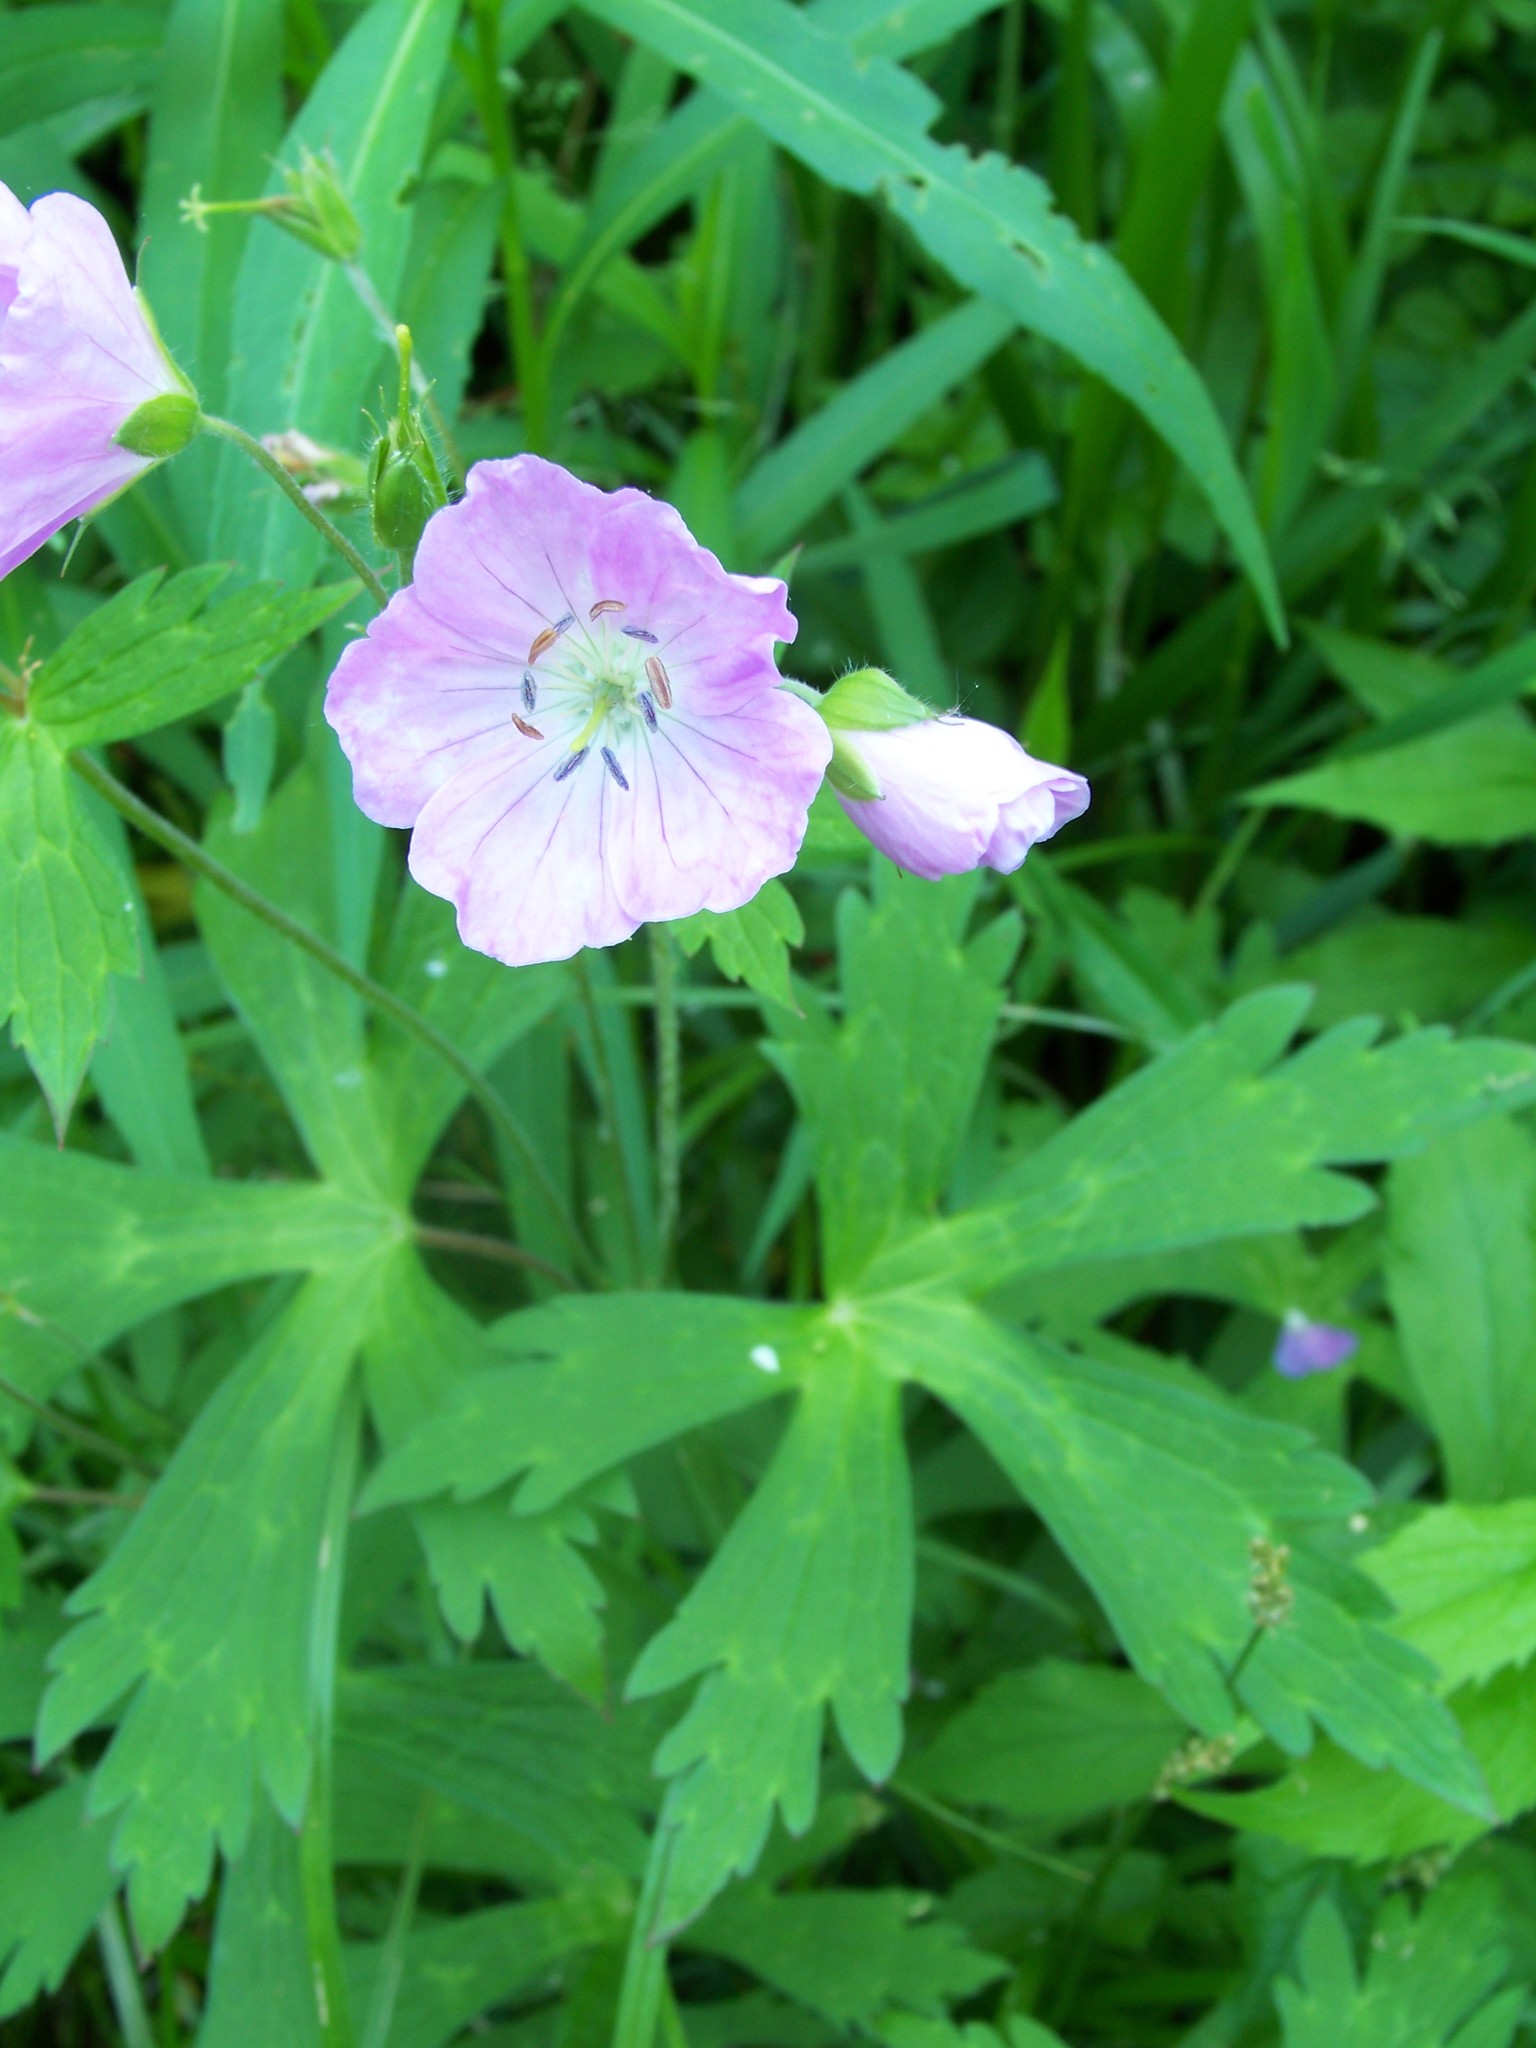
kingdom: Plantae
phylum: Tracheophyta
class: Magnoliopsida
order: Geraniales
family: Geraniaceae
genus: Geranium
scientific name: Geranium maculatum
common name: Spotted geranium
